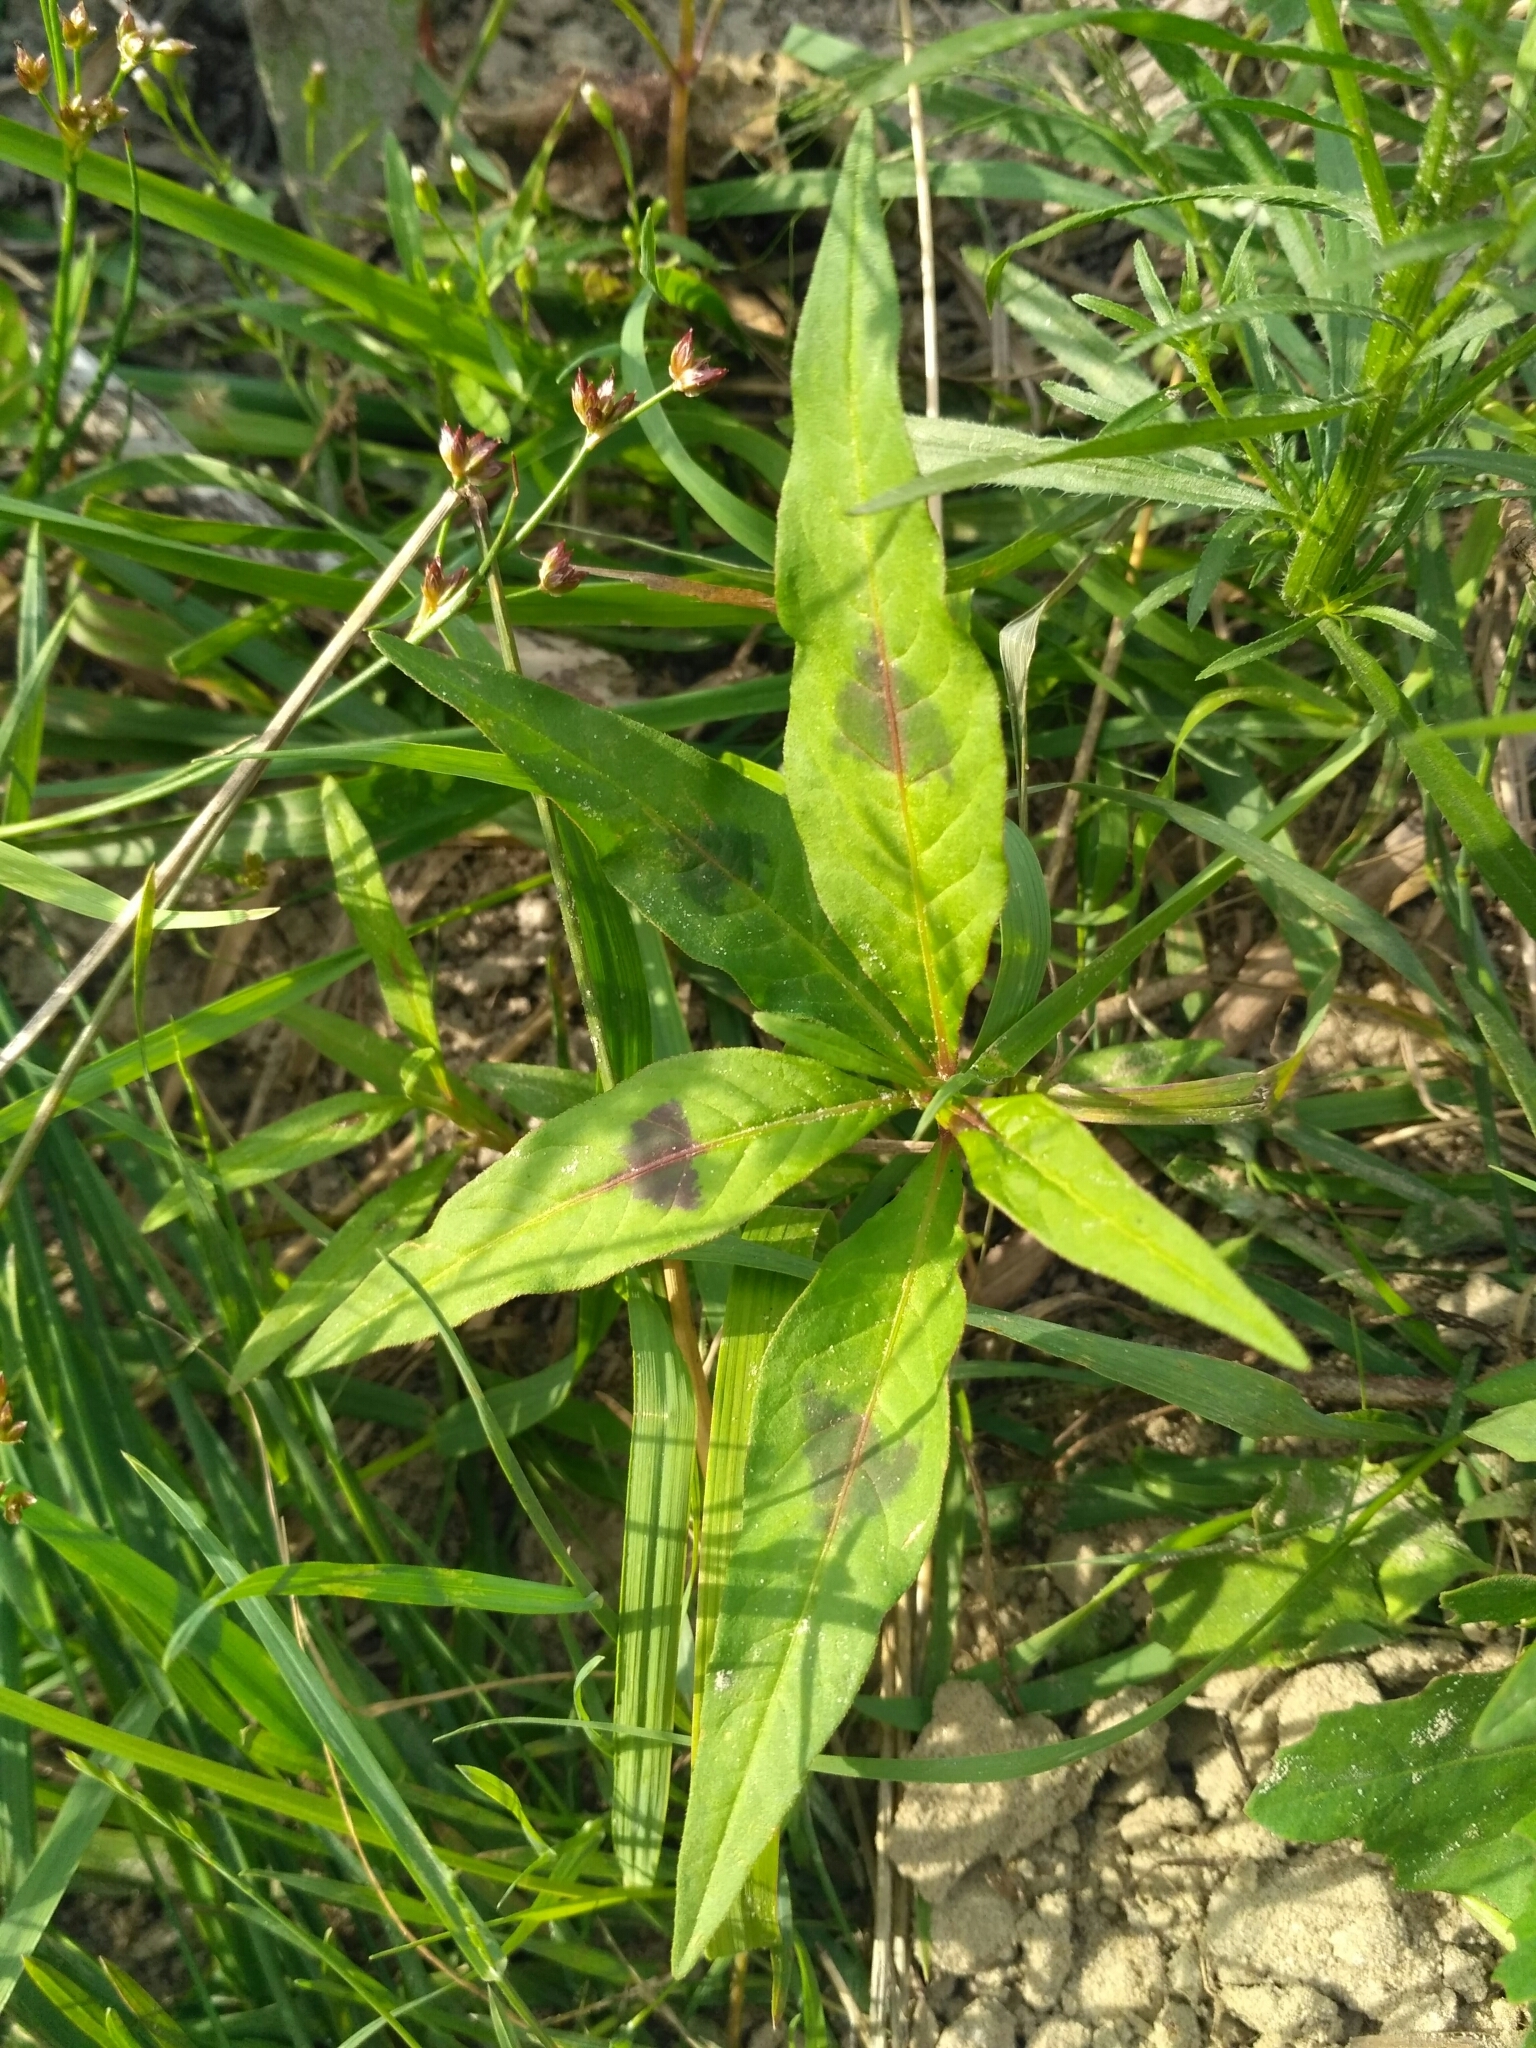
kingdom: Plantae
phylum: Tracheophyta
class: Magnoliopsida
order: Caryophyllales
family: Polygonaceae
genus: Persicaria
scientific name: Persicaria lapathifolia
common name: Curlytop knotweed
